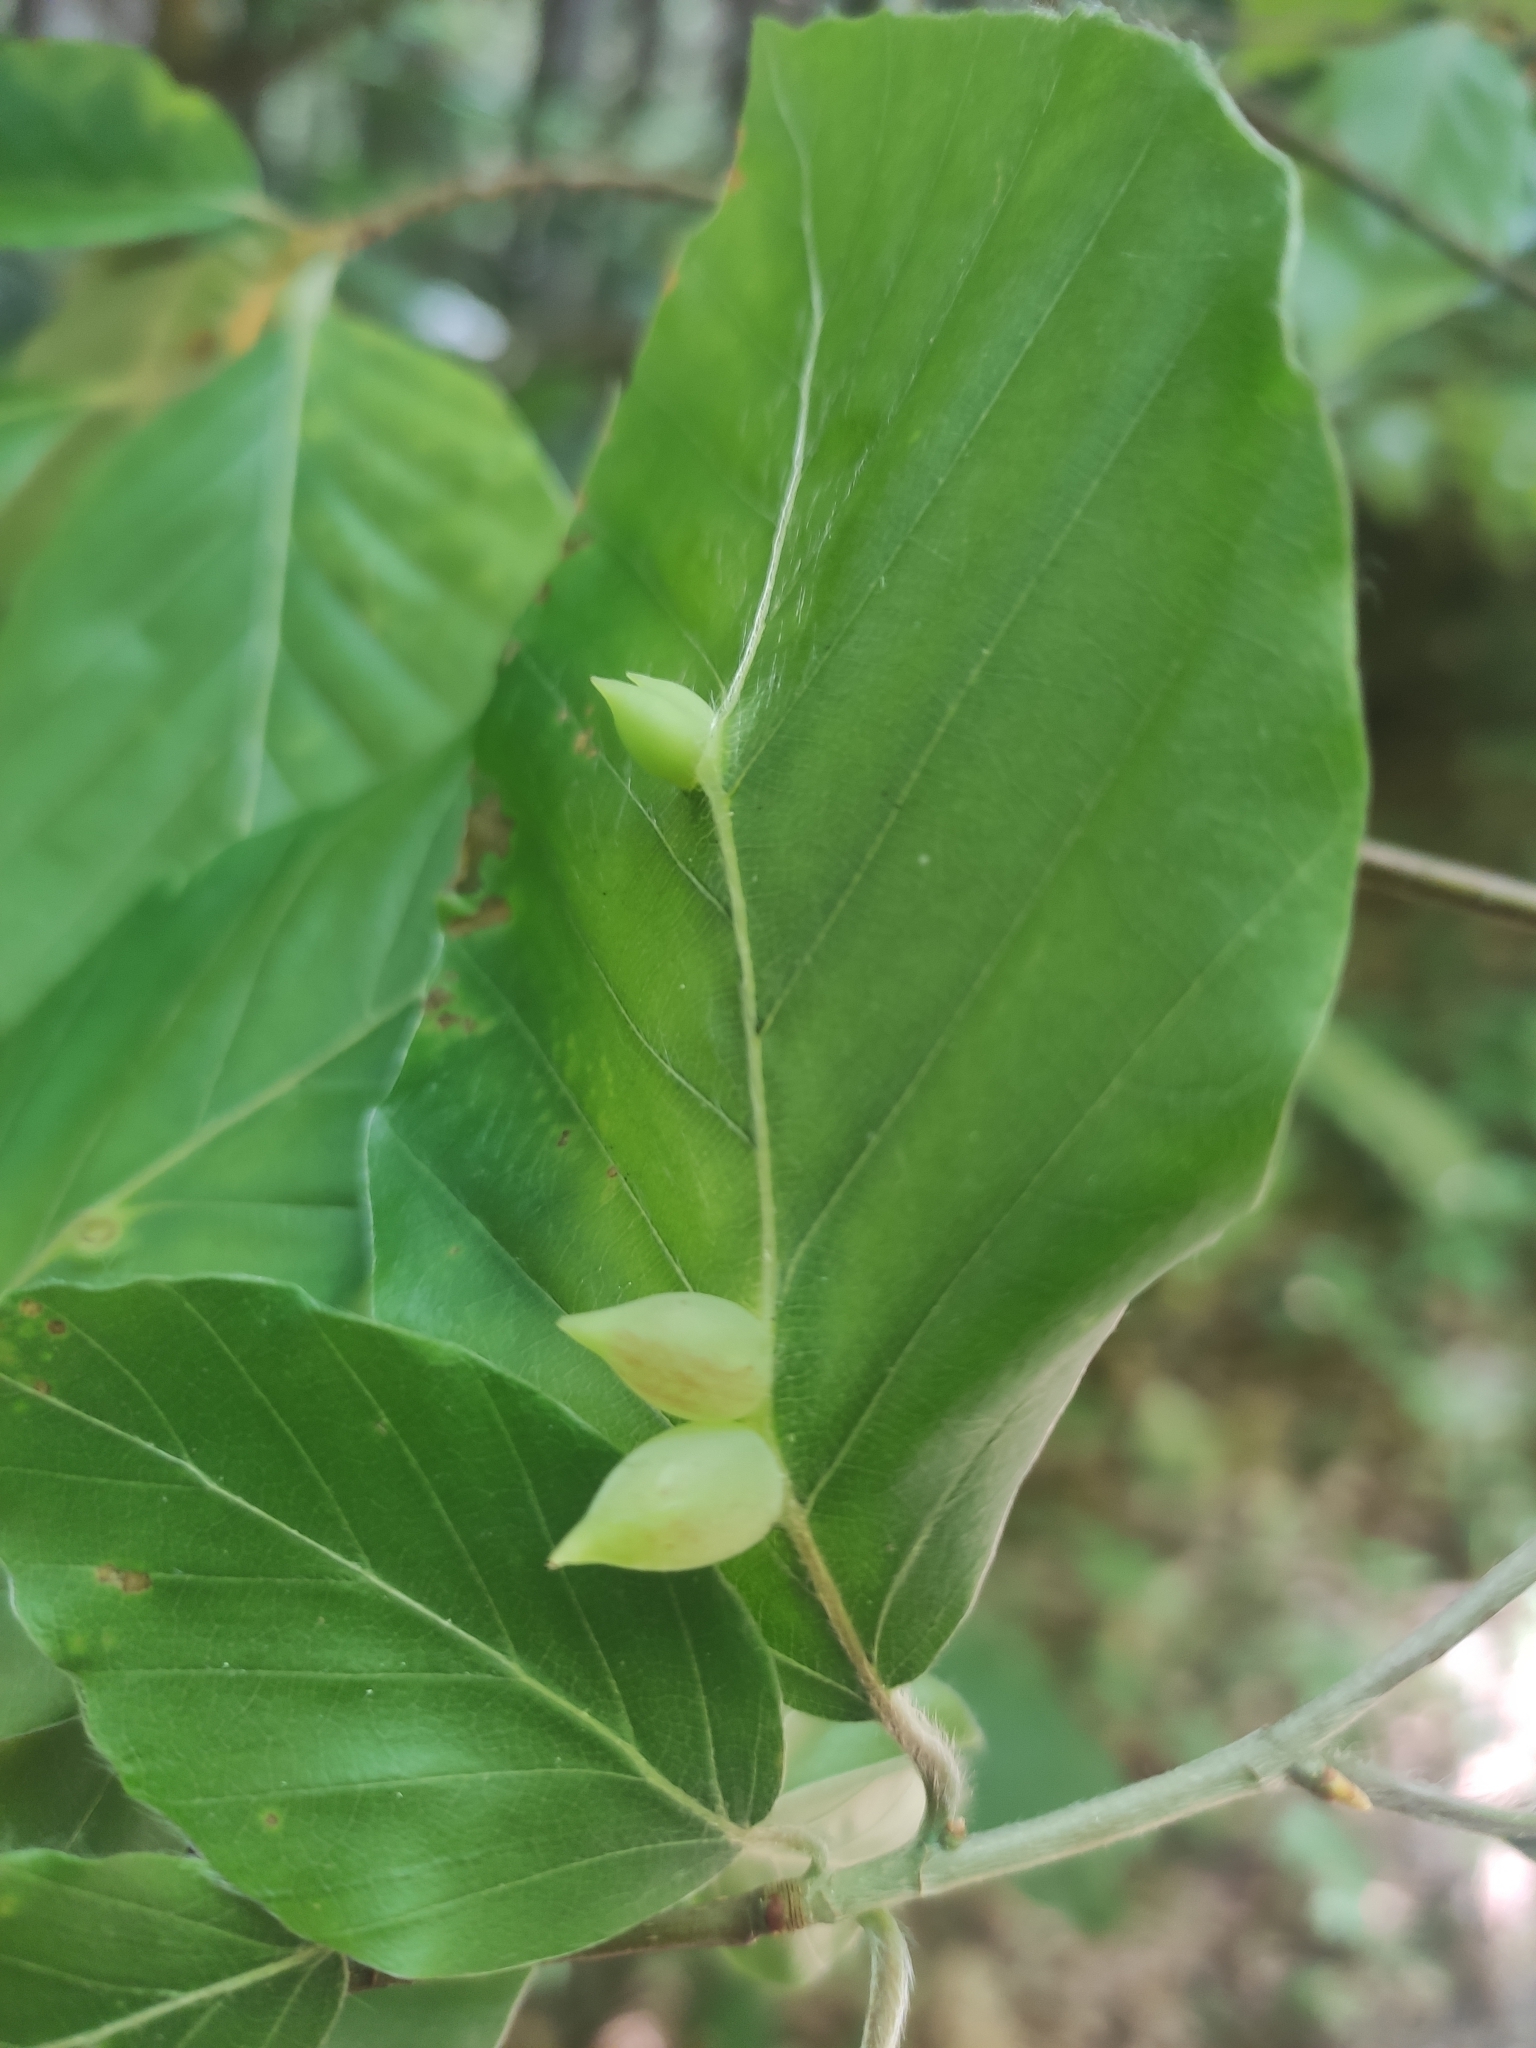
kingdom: Animalia
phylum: Arthropoda
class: Insecta
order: Diptera
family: Cecidomyiidae
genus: Mikiola
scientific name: Mikiola fagi
